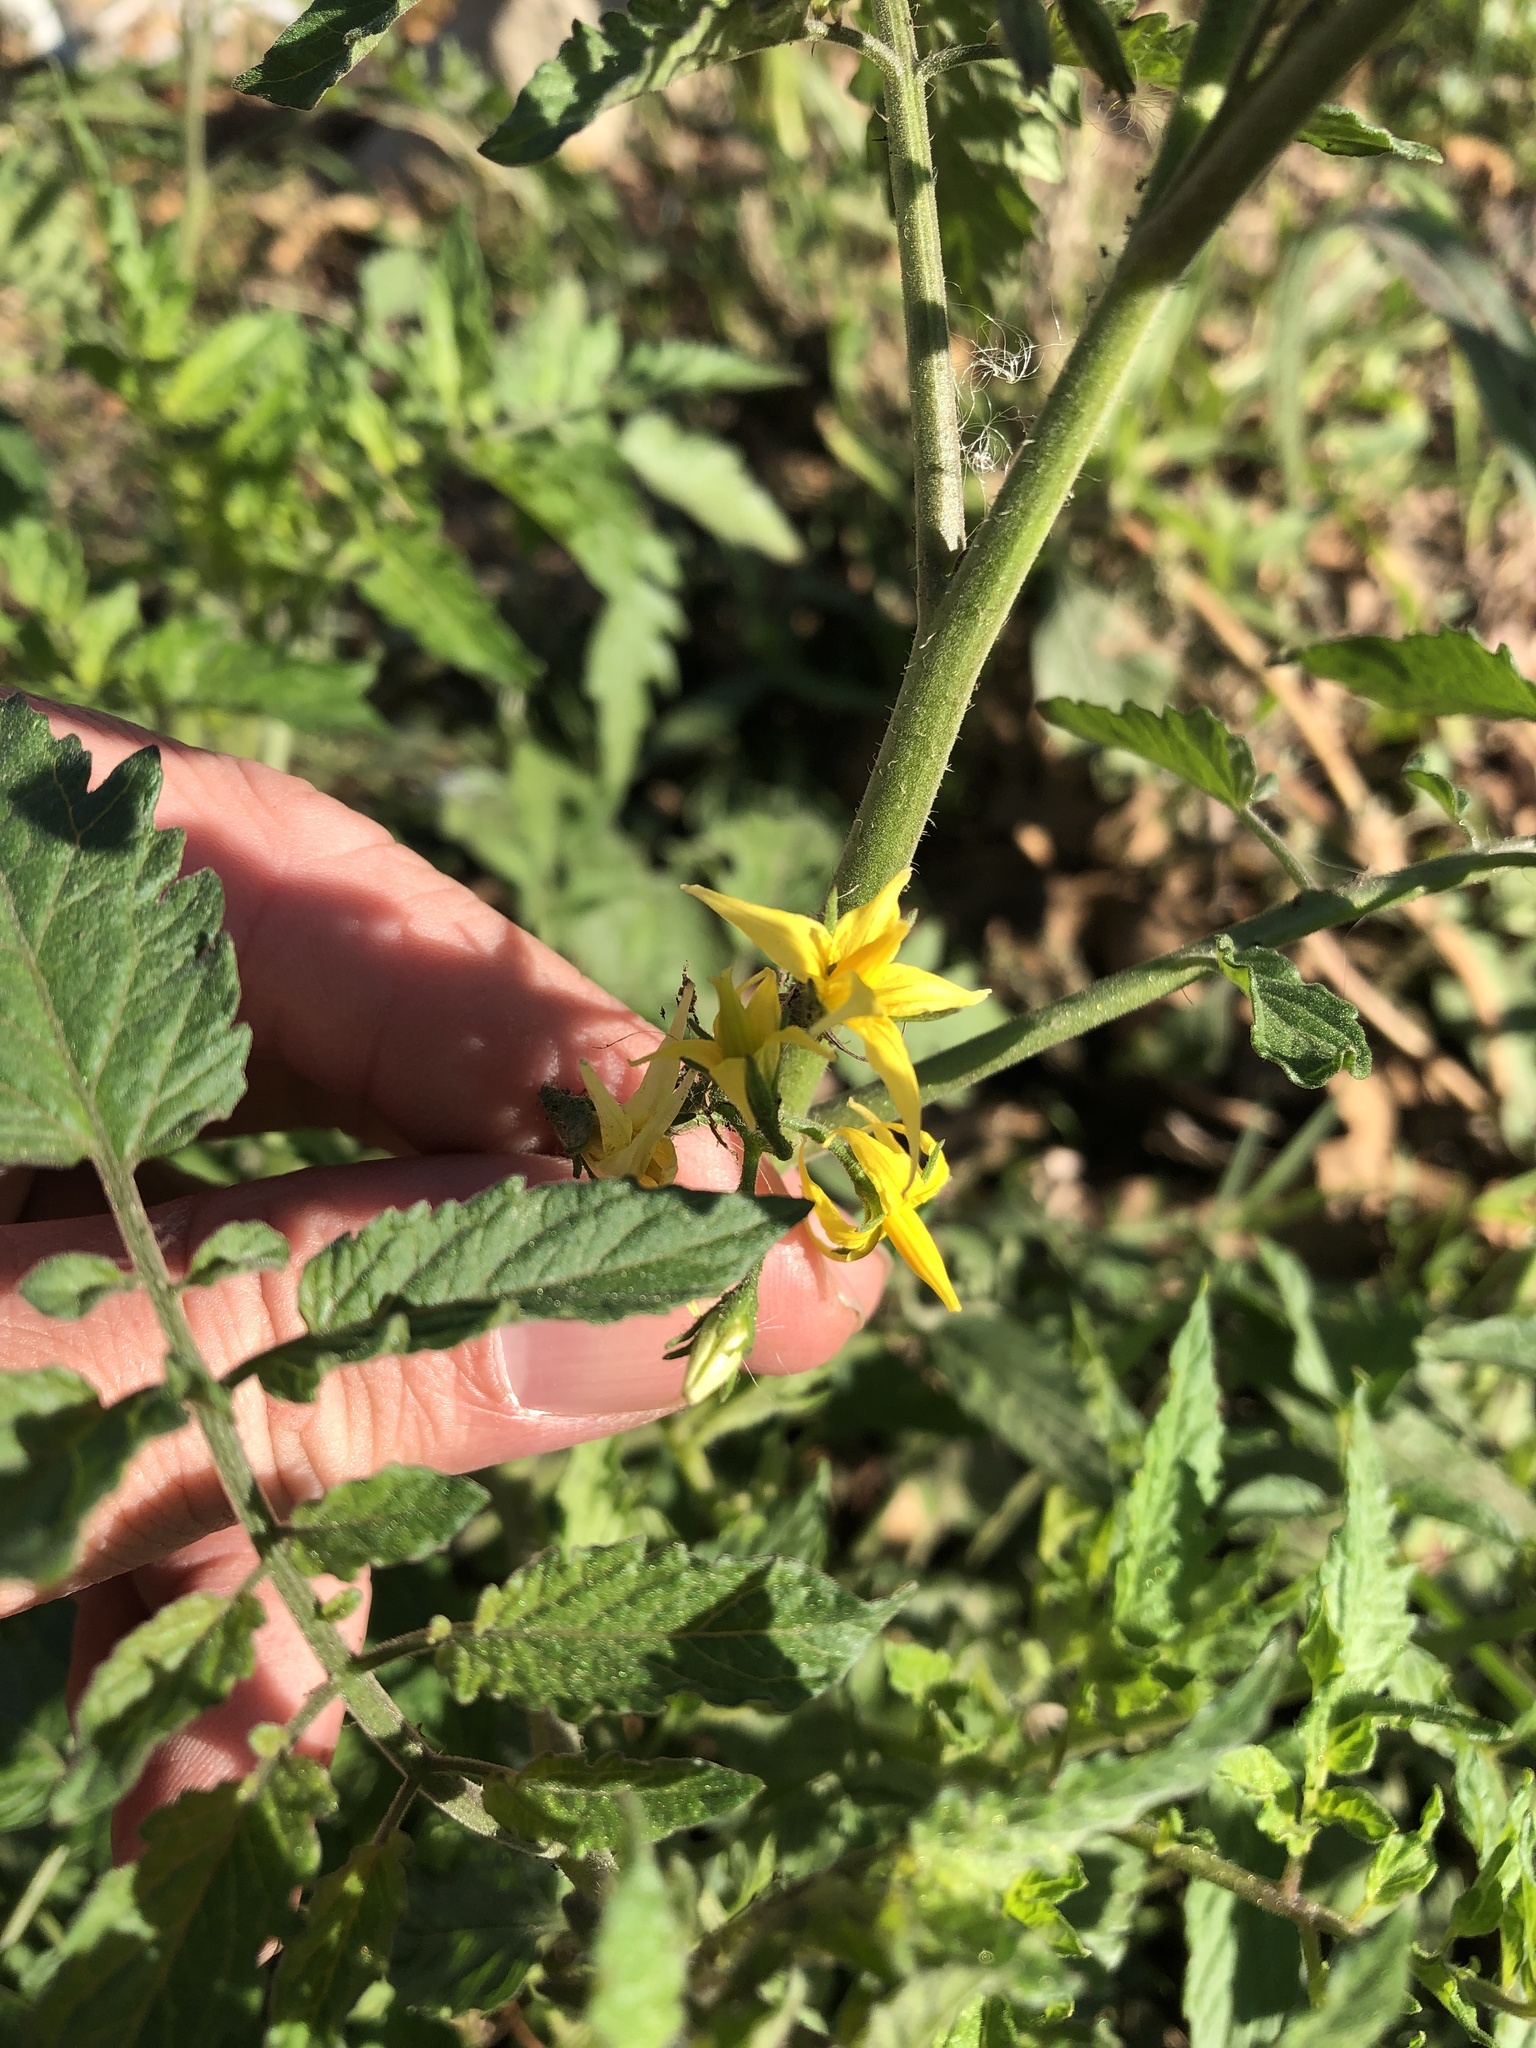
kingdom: Plantae
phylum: Tracheophyta
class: Magnoliopsida
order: Solanales
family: Solanaceae
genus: Solanum
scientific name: Solanum lycopersicum
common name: Garden tomato
